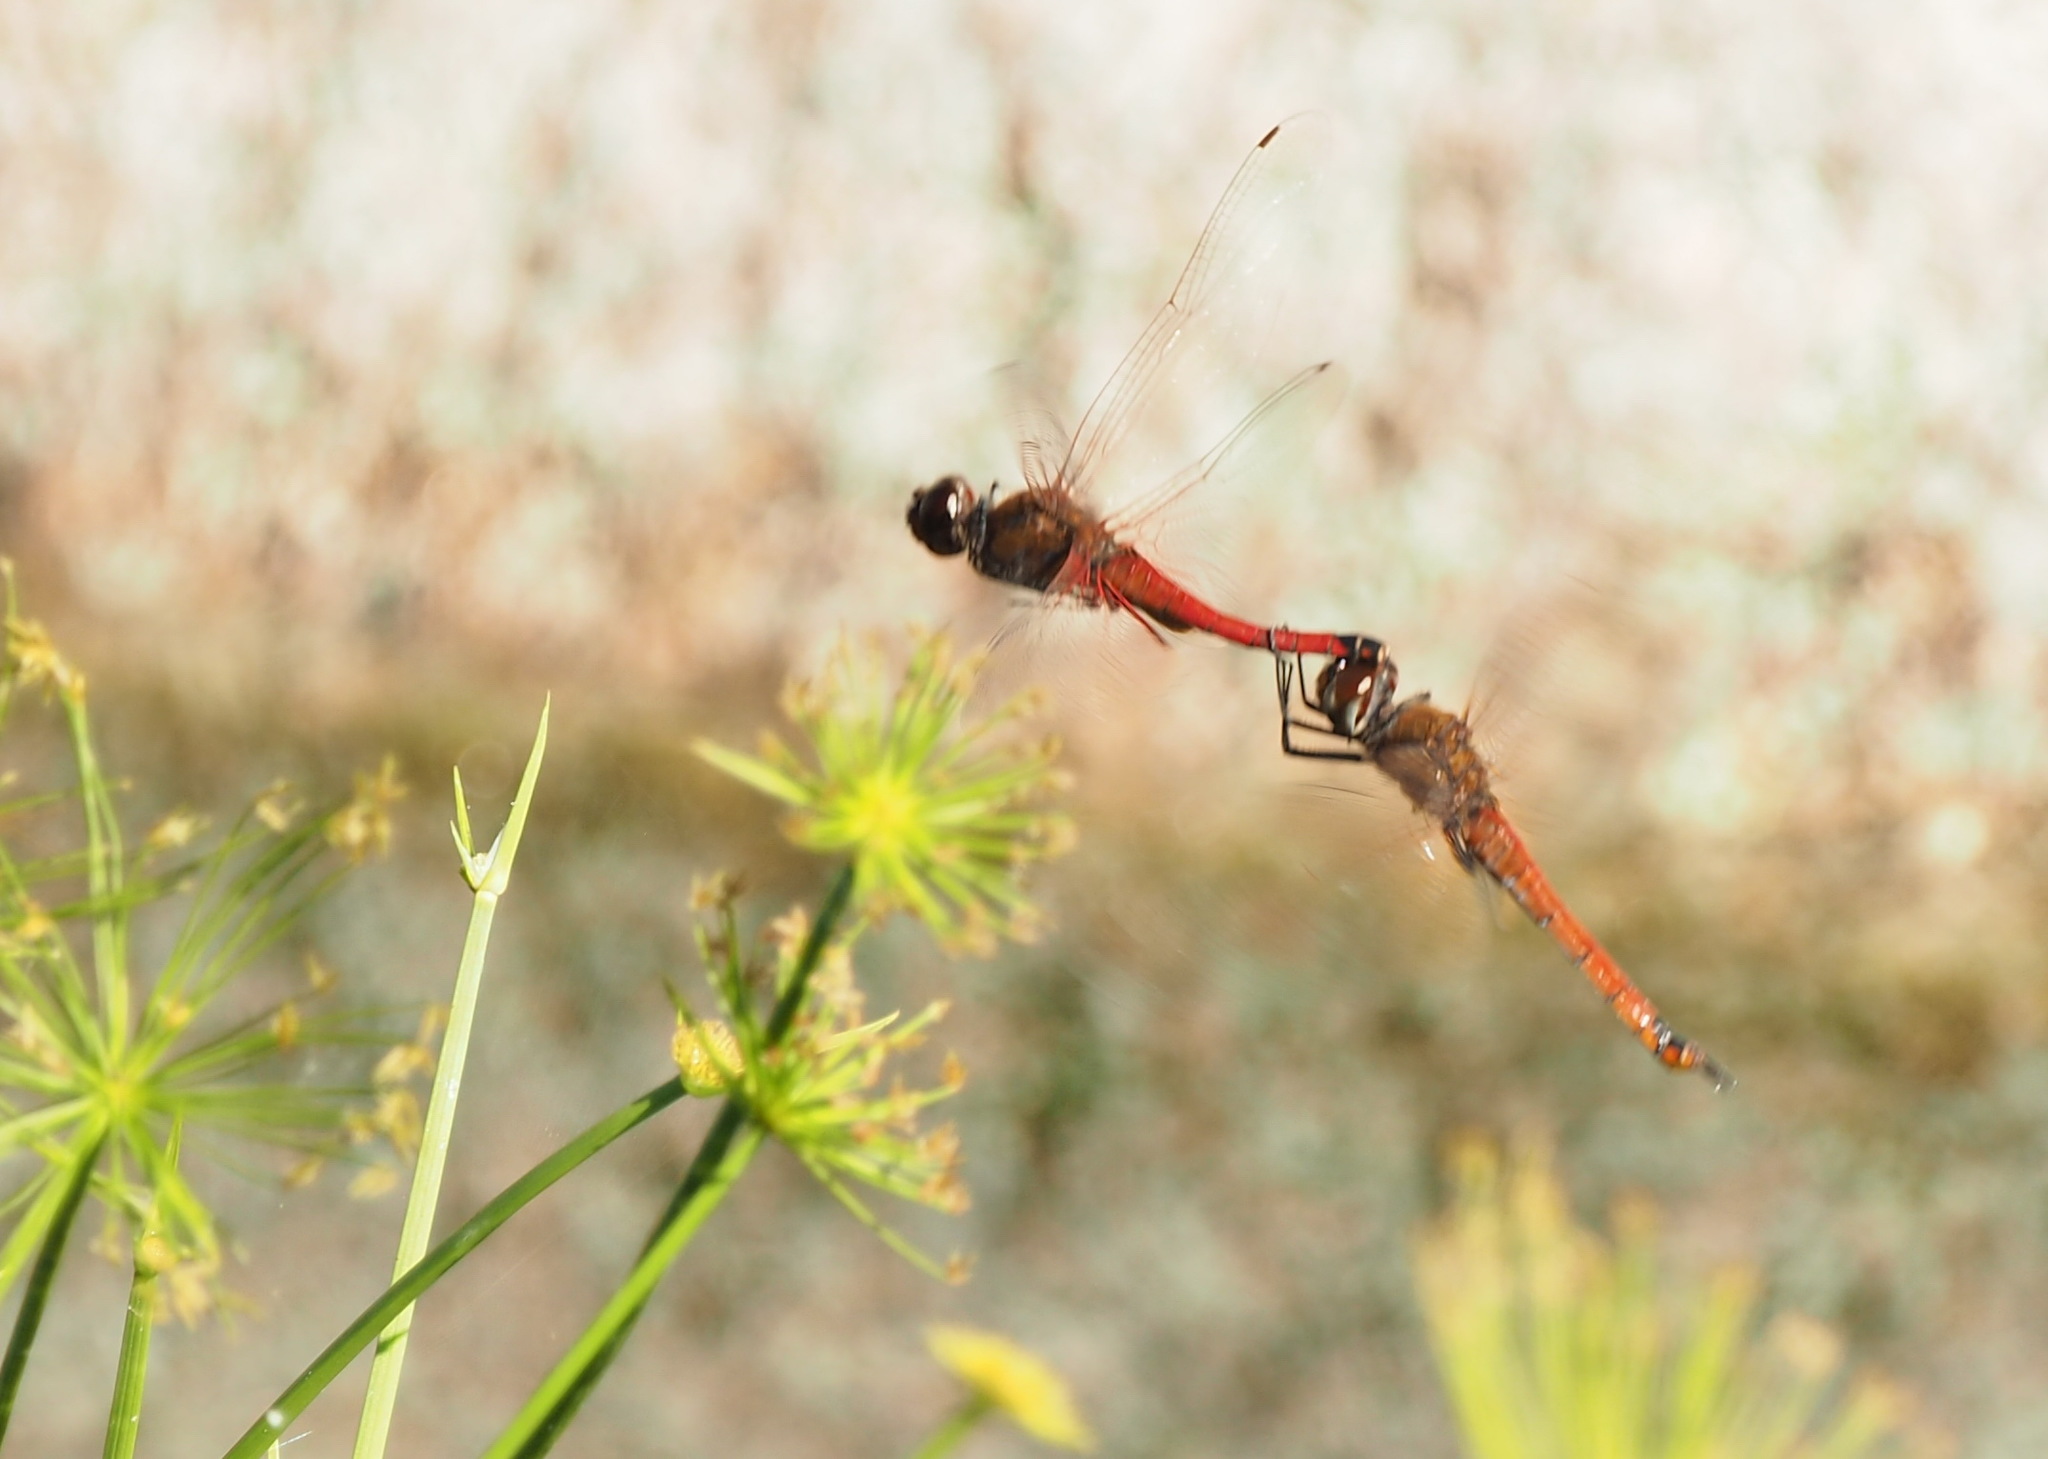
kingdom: Animalia
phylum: Arthropoda
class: Insecta
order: Odonata
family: Libellulidae
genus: Tramea
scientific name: Tramea transmarina
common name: Red glider dragonfly
